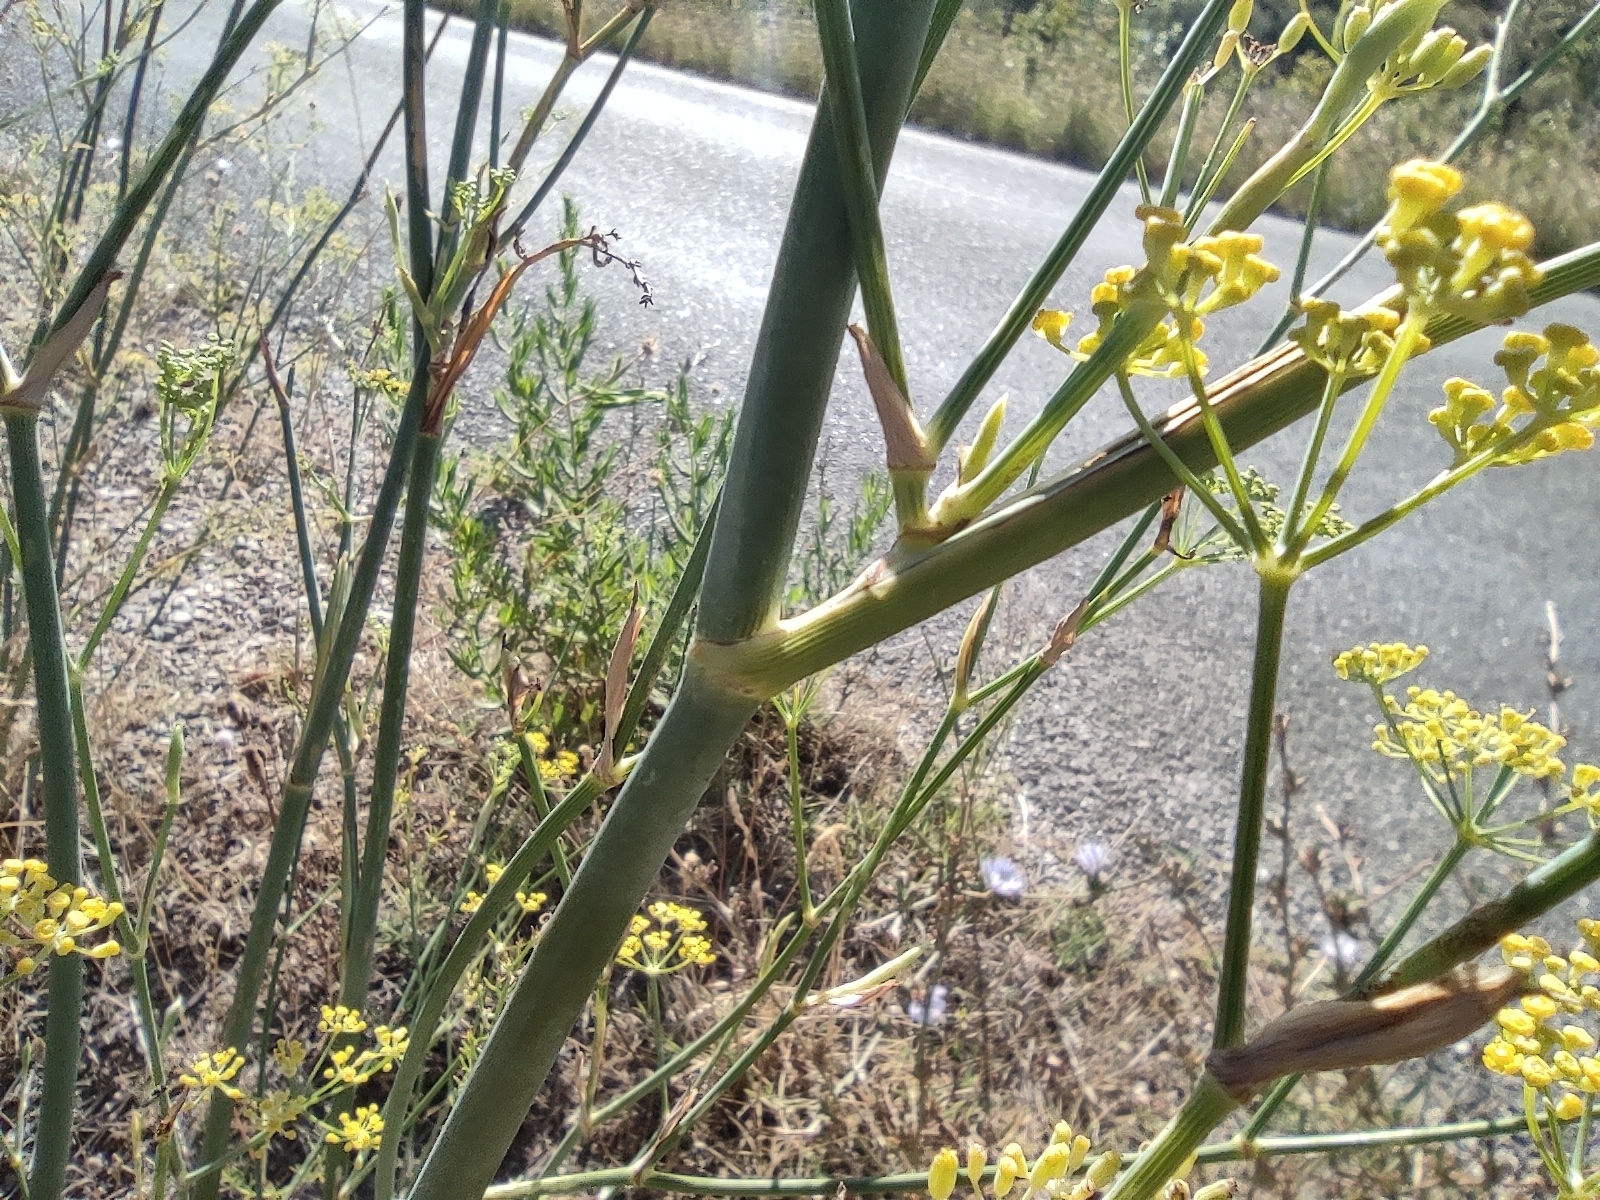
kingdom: Plantae
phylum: Tracheophyta
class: Magnoliopsida
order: Apiales
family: Apiaceae
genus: Foeniculum
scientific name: Foeniculum vulgare
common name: Fennel
